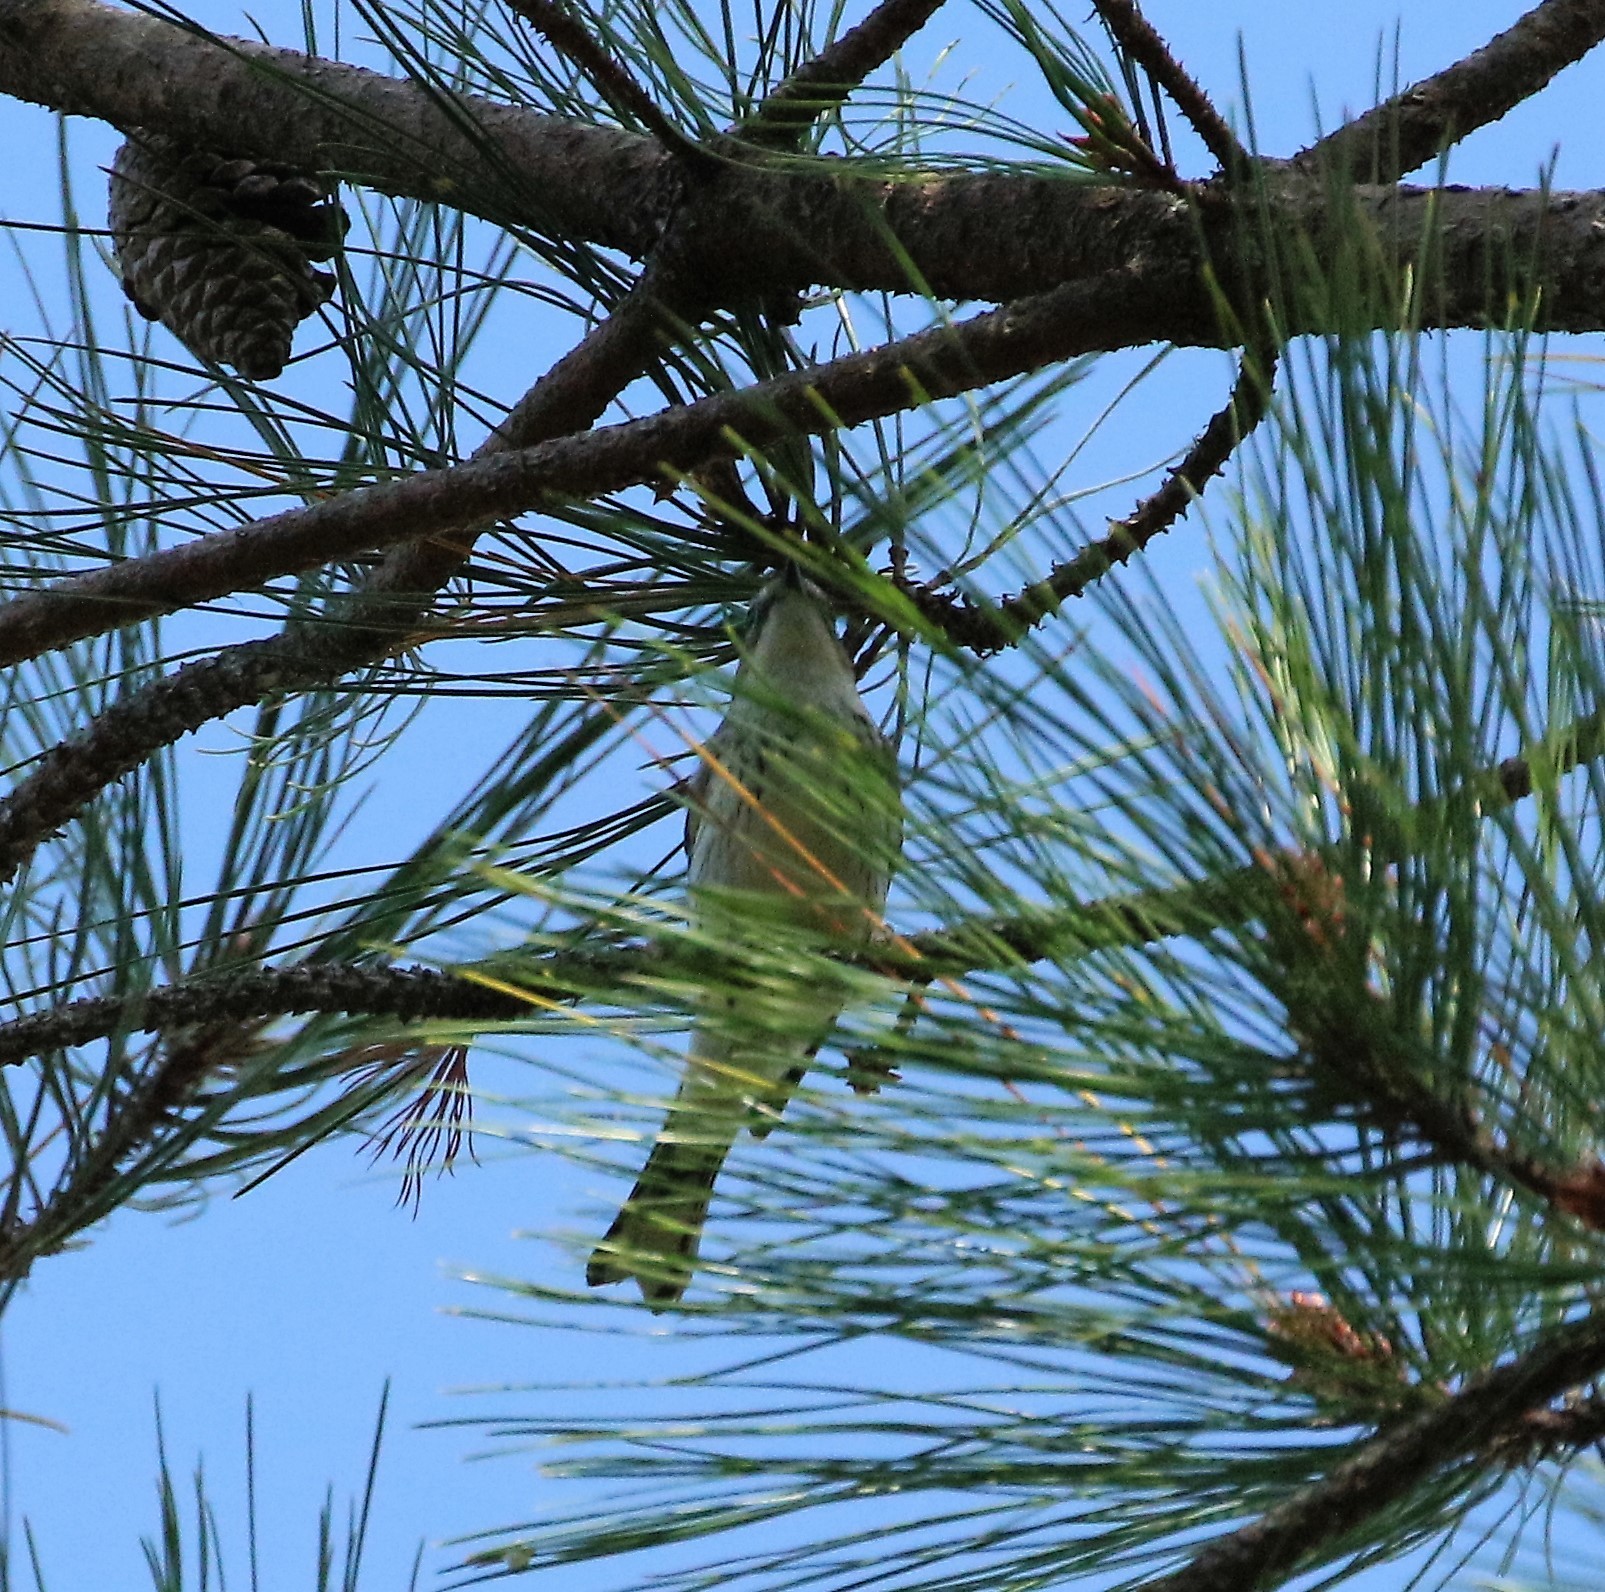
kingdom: Animalia
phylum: Chordata
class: Aves
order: Passeriformes
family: Parulidae
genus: Setophaga
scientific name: Setophaga coronata
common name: Myrtle warbler
